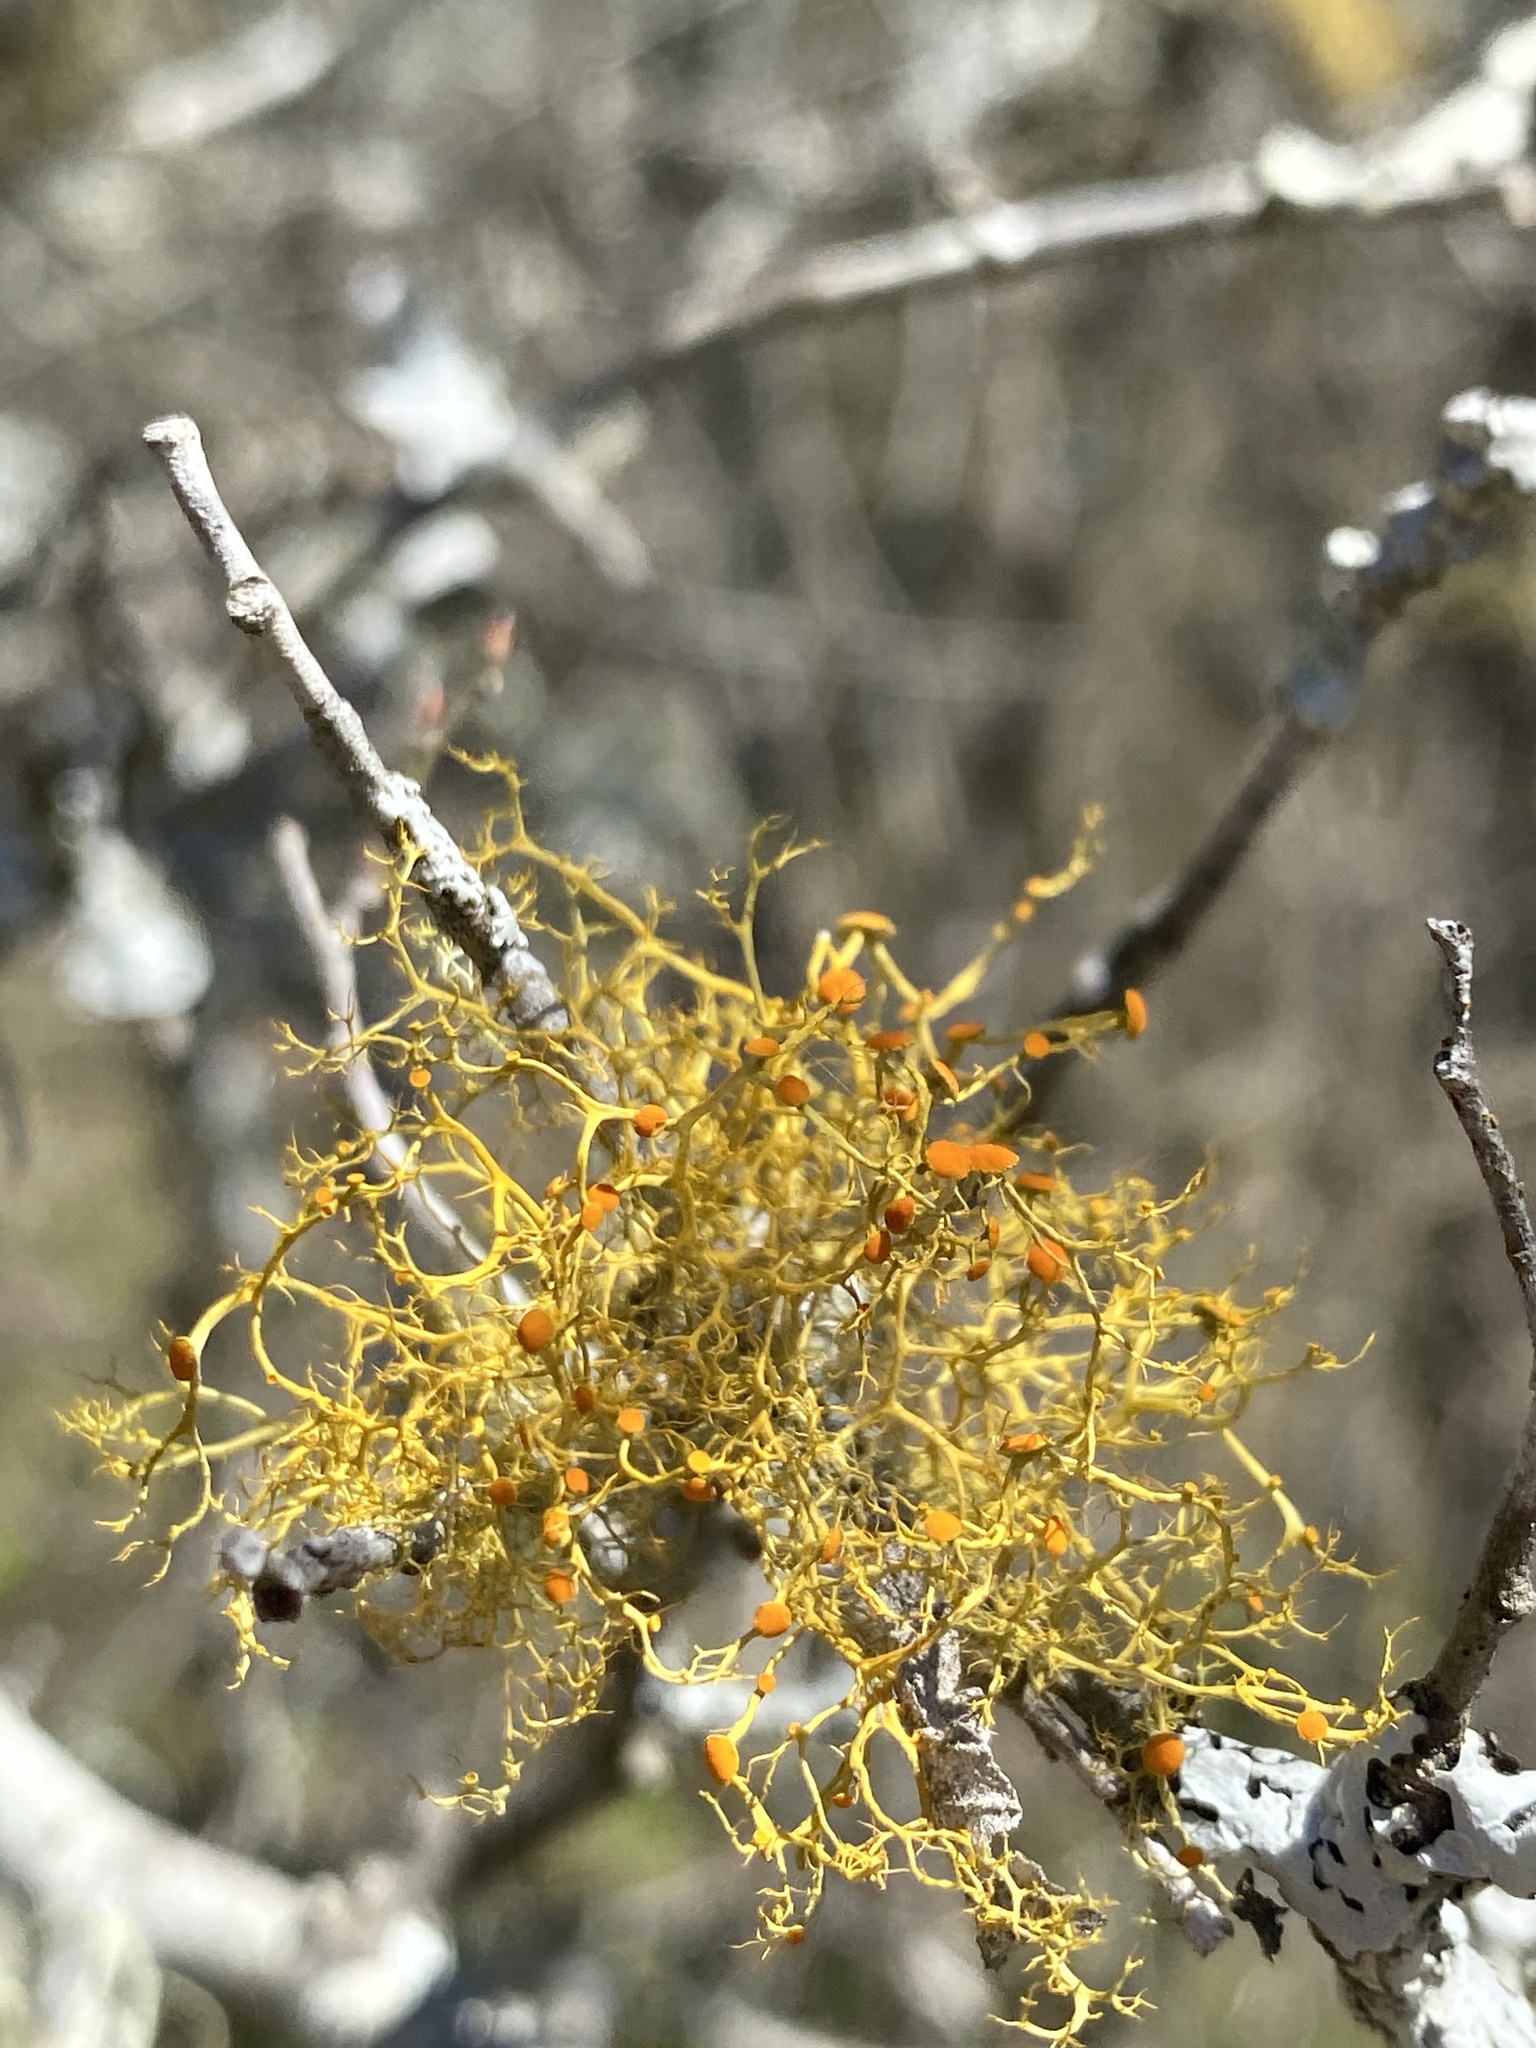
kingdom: Fungi
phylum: Ascomycota
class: Lecanoromycetes
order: Teloschistales
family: Teloschistaceae
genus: Teloschistes
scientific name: Teloschistes exilis
